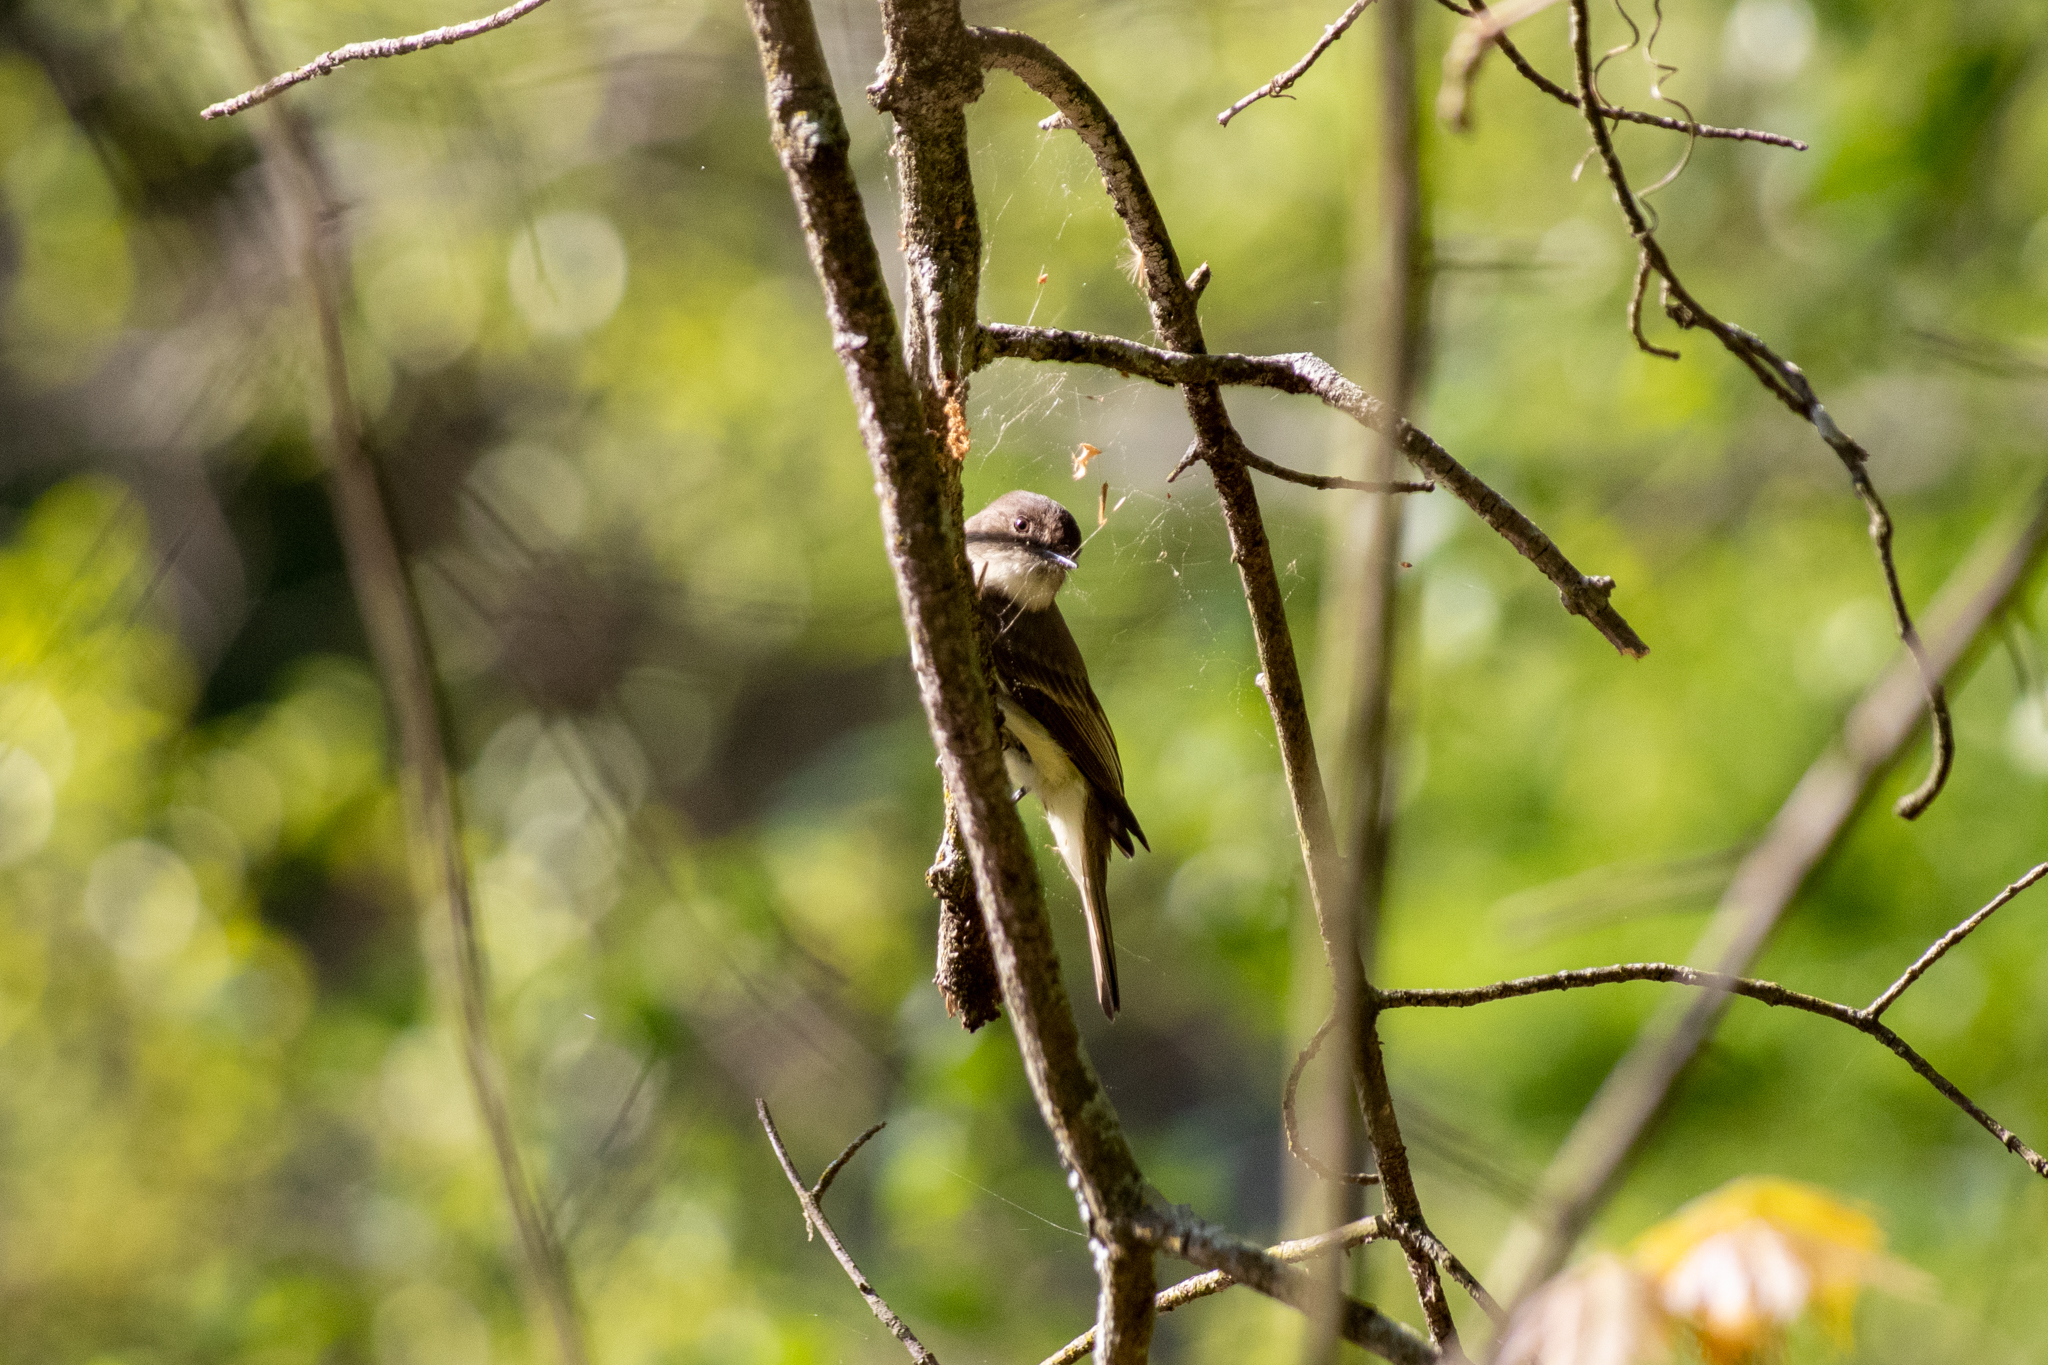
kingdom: Animalia
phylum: Chordata
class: Aves
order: Passeriformes
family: Tyrannidae
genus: Sayornis
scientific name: Sayornis phoebe
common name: Eastern phoebe
